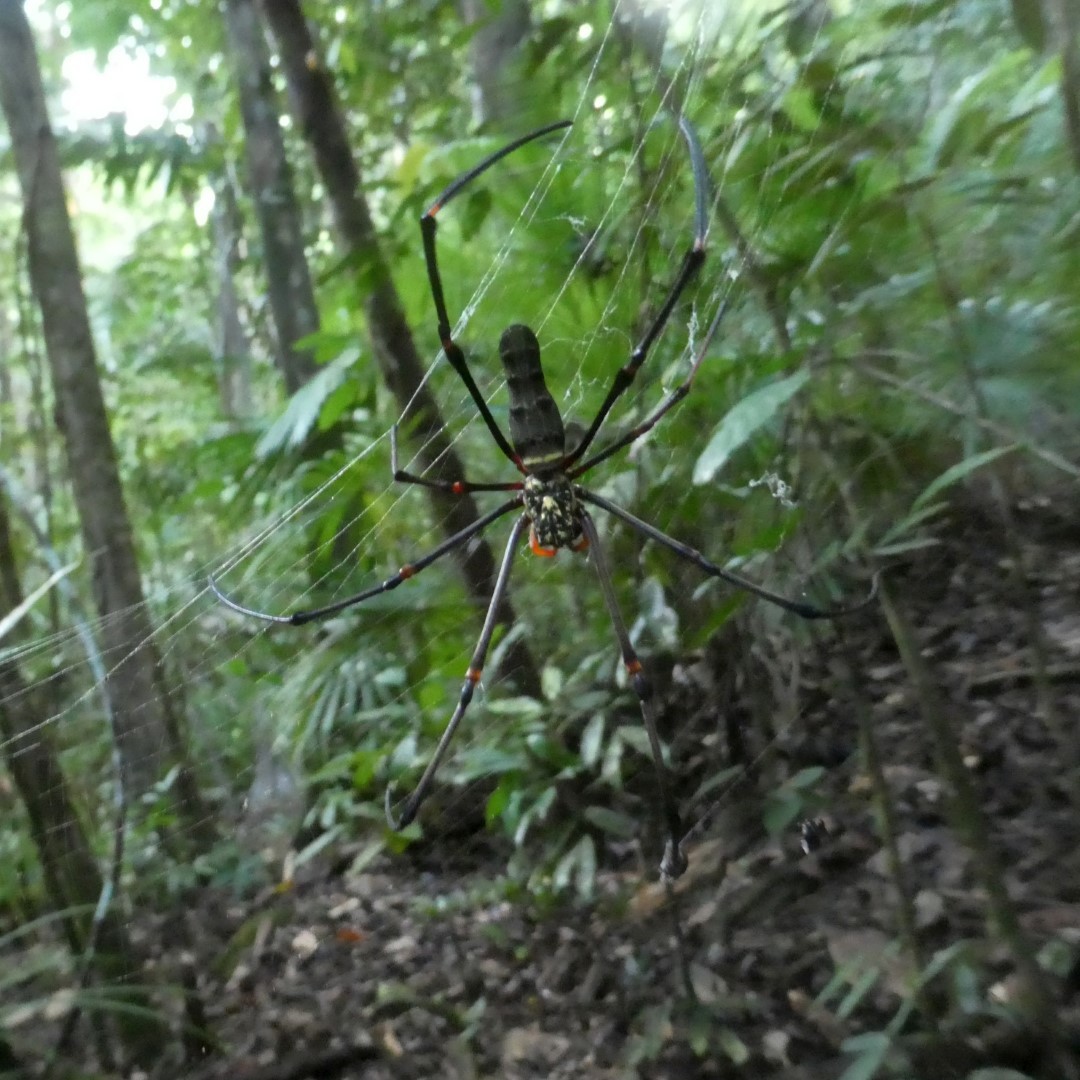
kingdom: Animalia
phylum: Arthropoda
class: Arachnida
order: Araneae
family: Araneidae
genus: Nephila
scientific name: Nephila pilipes
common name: Giant golden orb weaver
